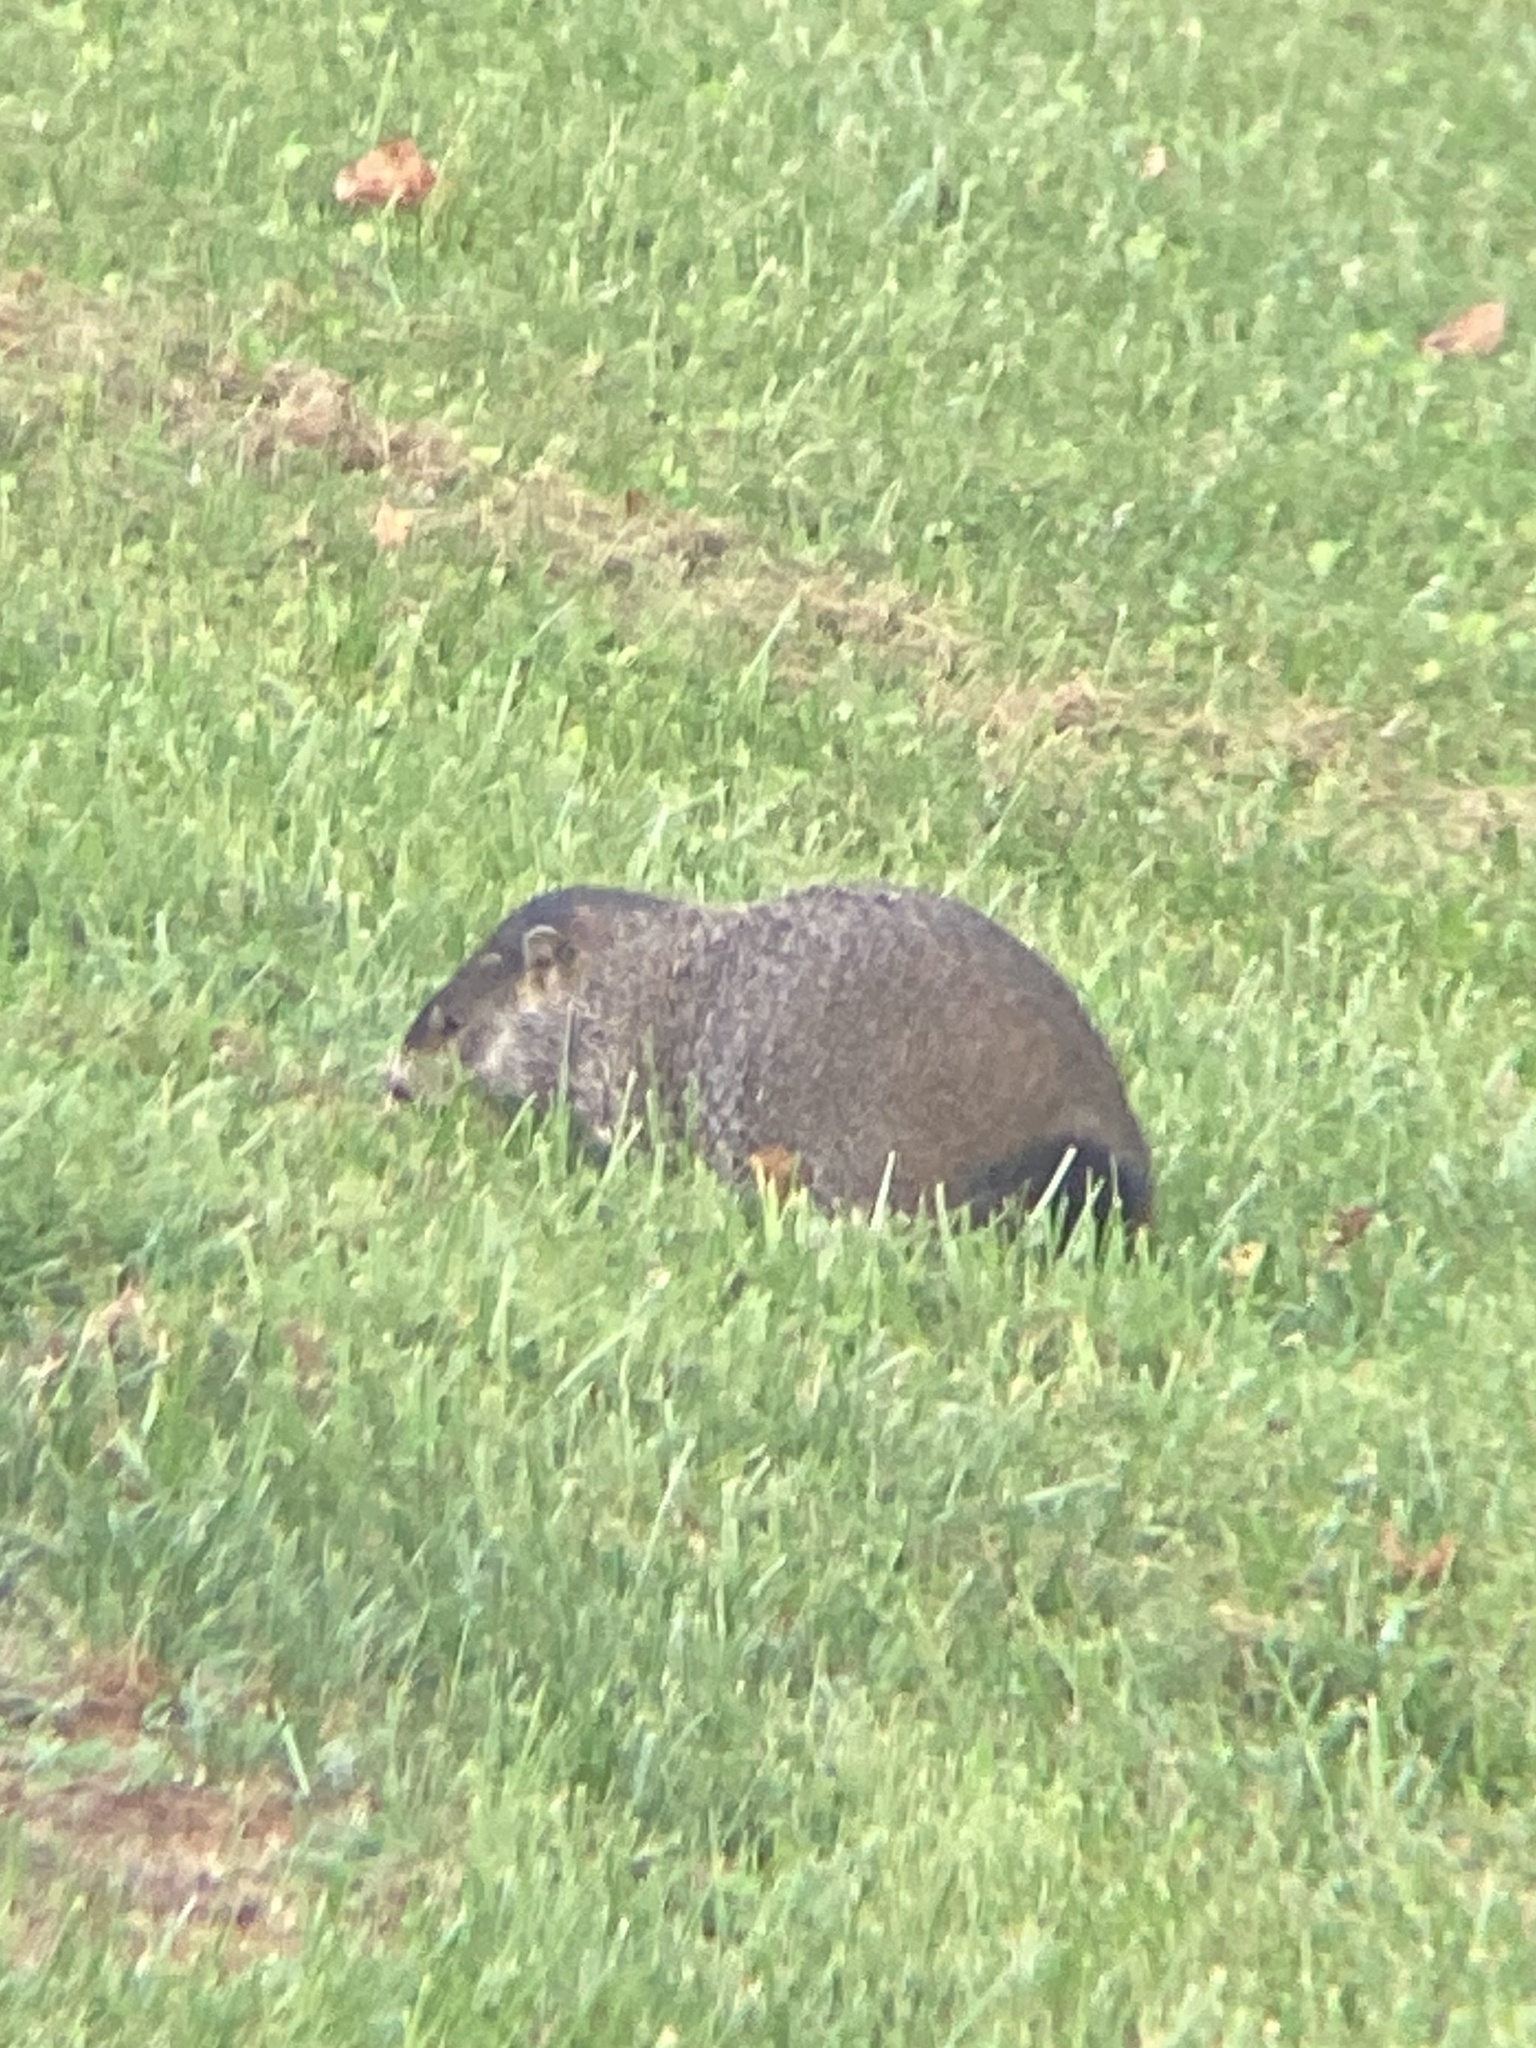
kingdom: Animalia
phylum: Chordata
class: Mammalia
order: Rodentia
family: Sciuridae
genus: Marmota
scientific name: Marmota monax
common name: Groundhog
